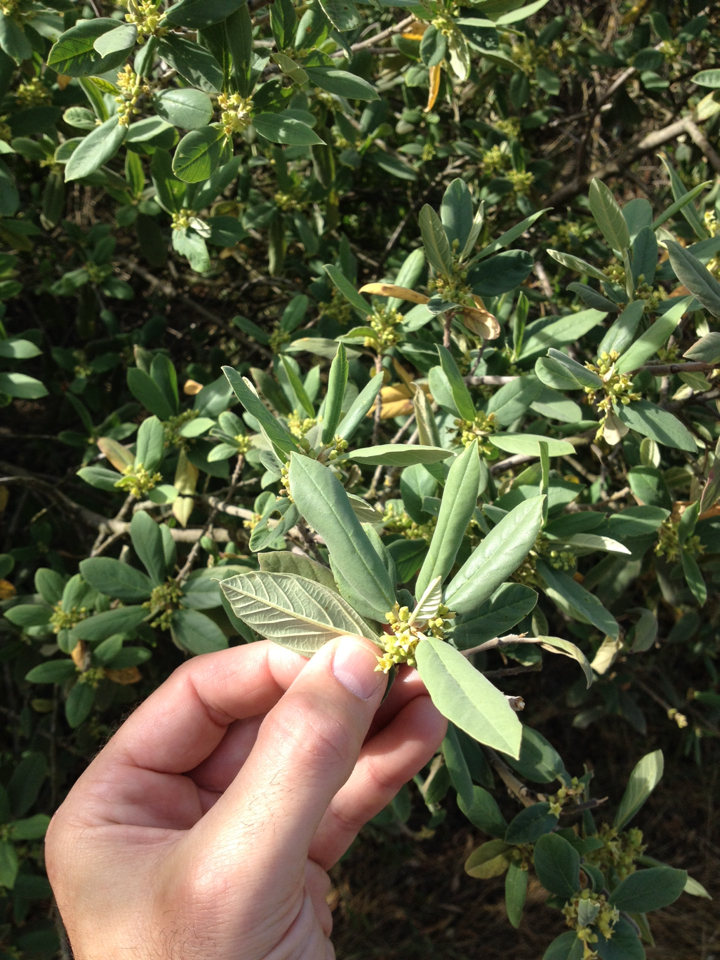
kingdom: Plantae
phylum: Tracheophyta
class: Magnoliopsida
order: Rosales
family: Rhamnaceae
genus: Frangula
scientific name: Frangula californica
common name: California buckthorn
